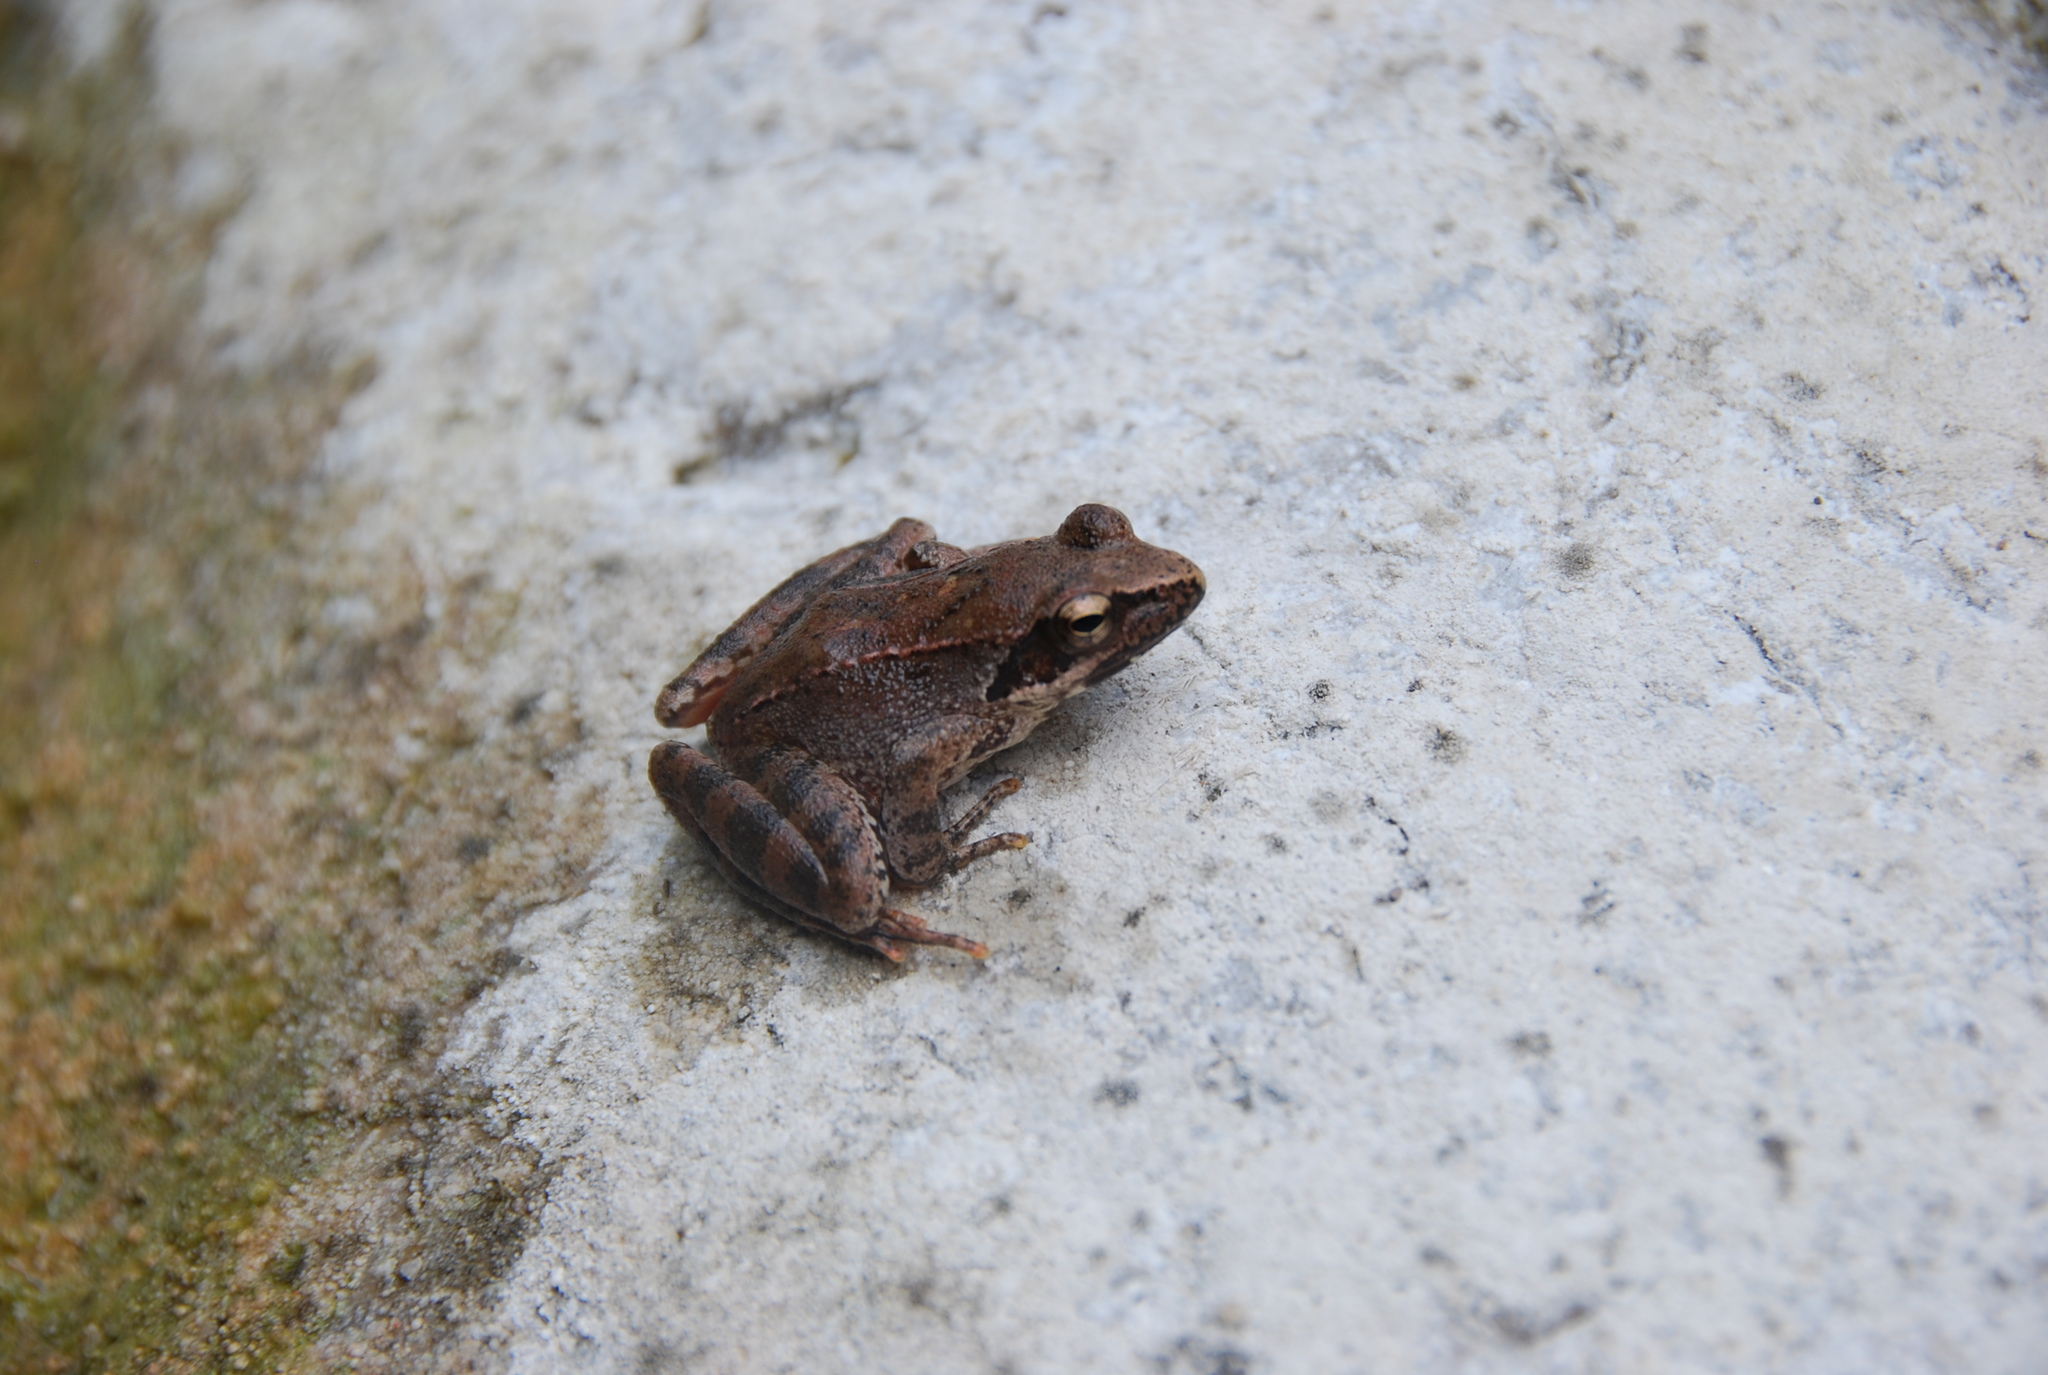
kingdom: Animalia
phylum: Chordata
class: Amphibia
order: Anura
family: Ranidae
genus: Rana
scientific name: Rana italica
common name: Italian stream frog
